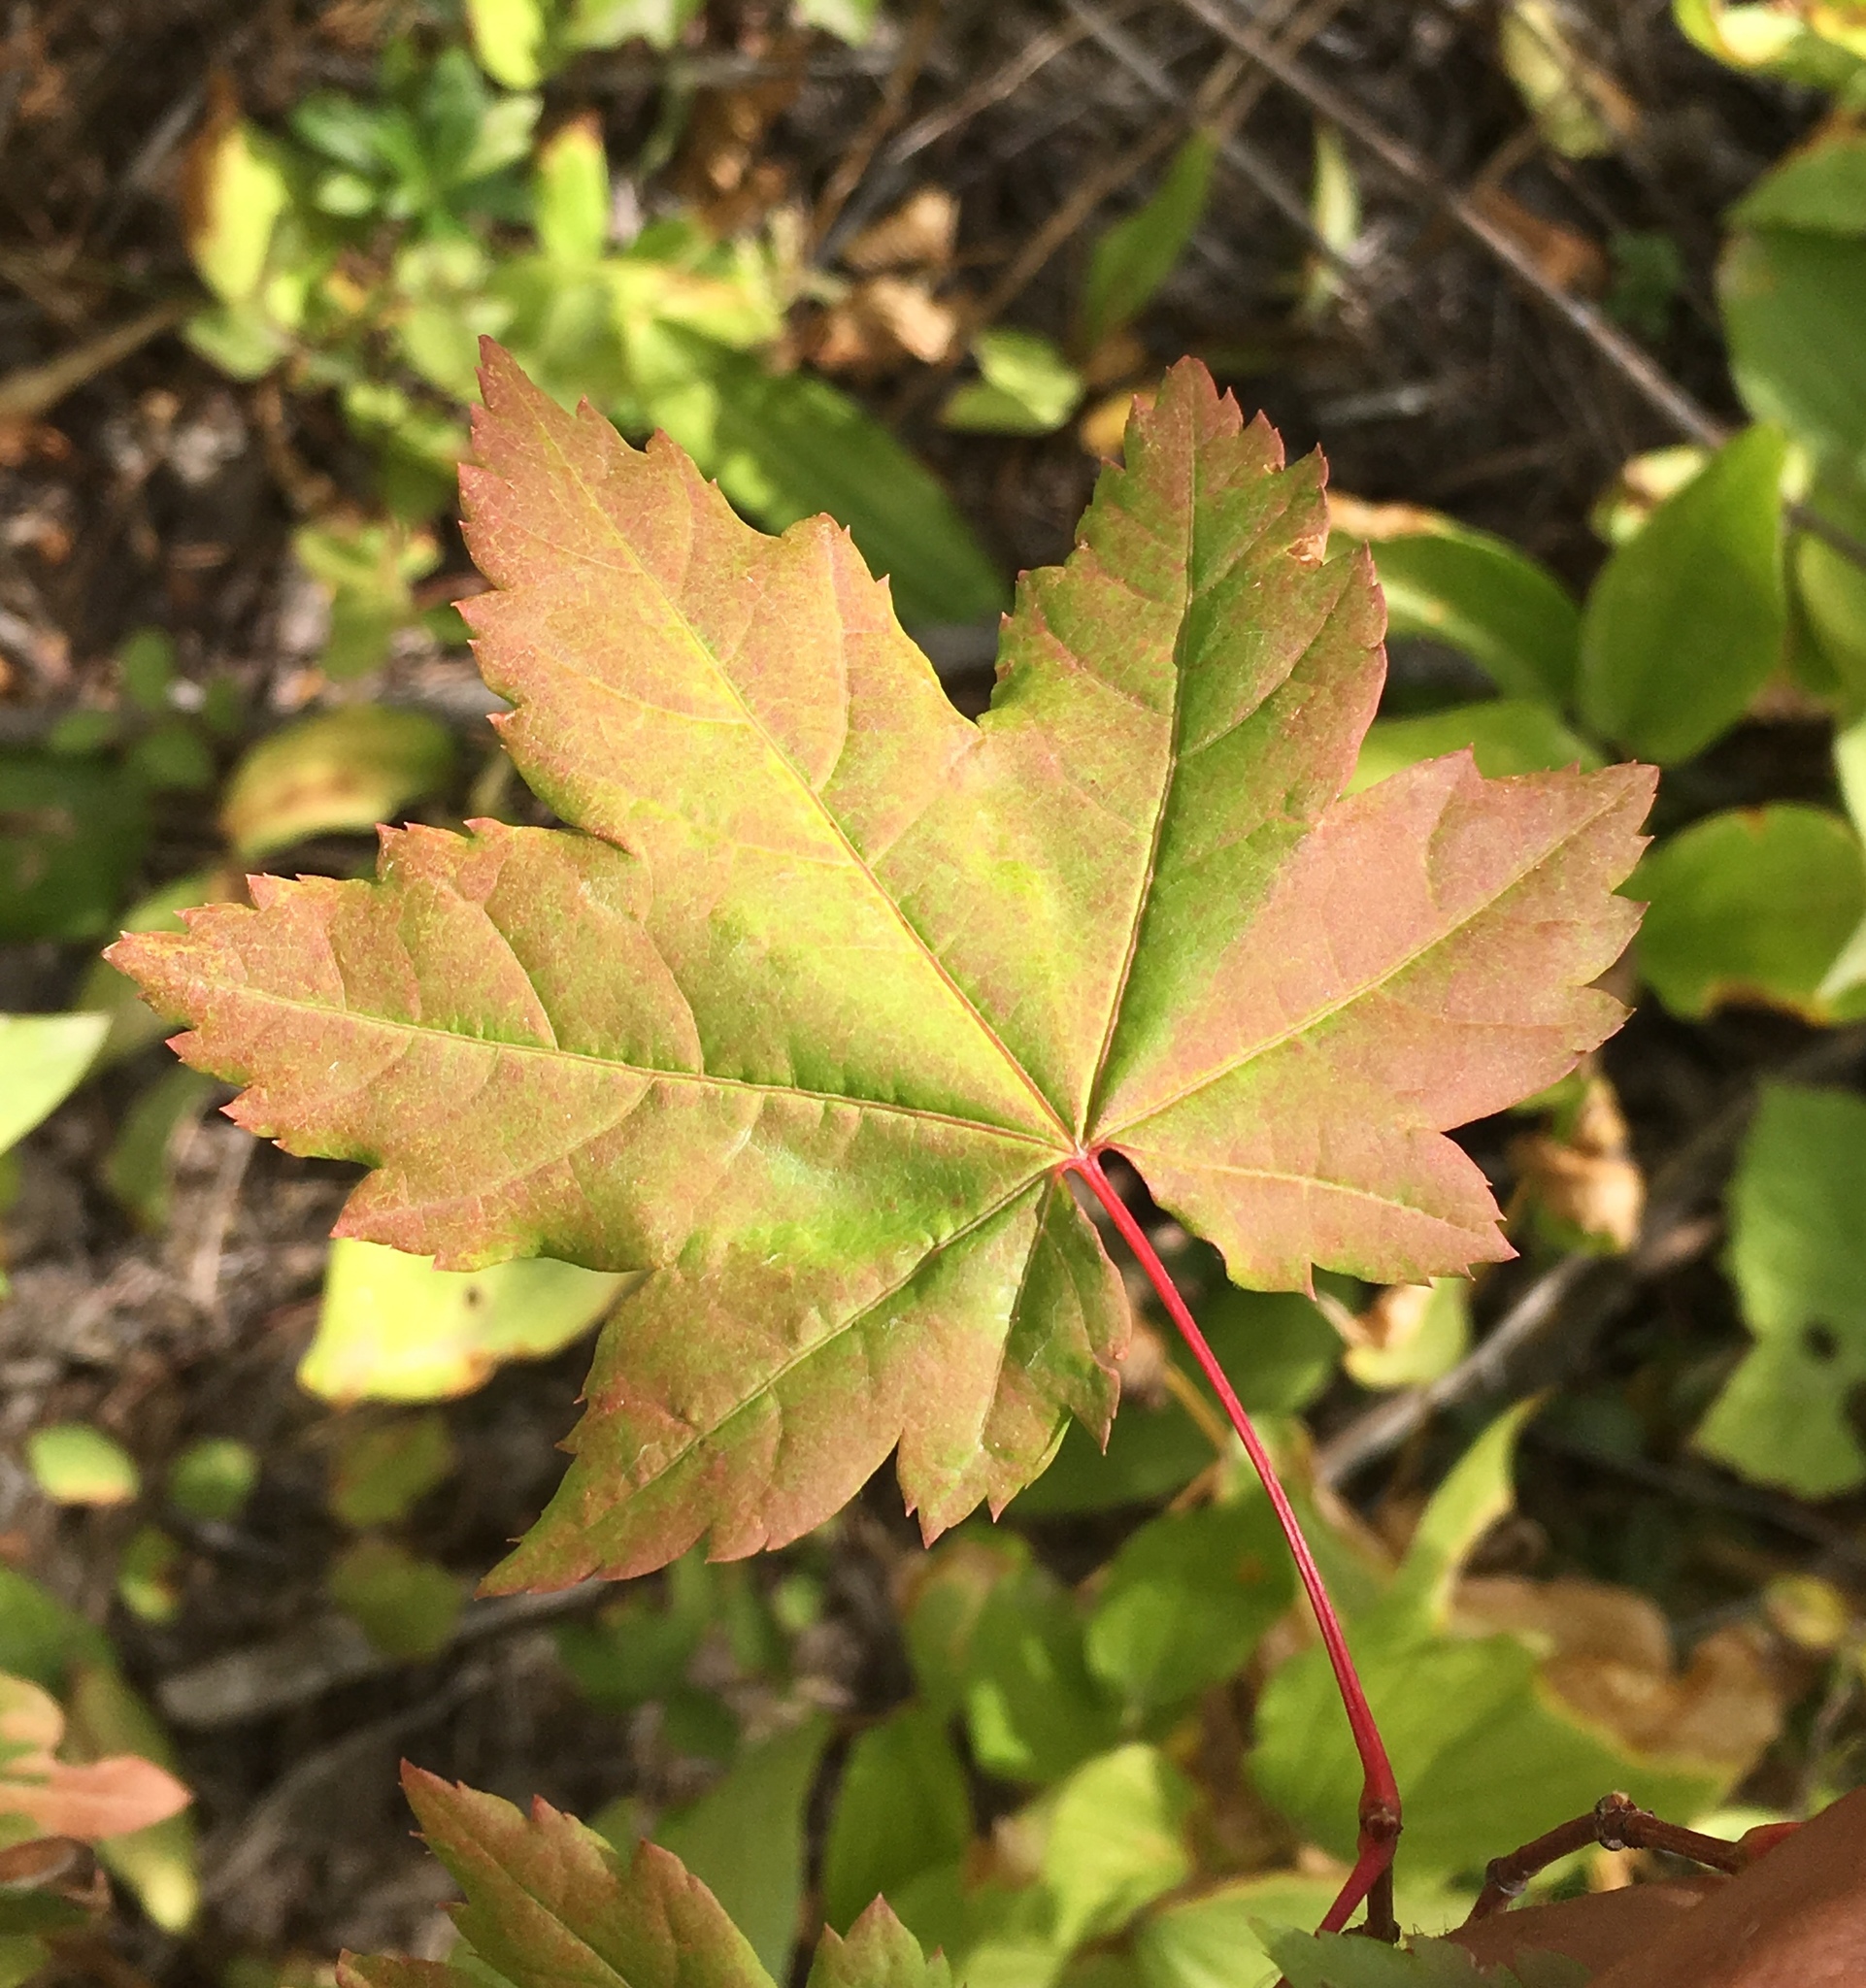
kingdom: Plantae
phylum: Tracheophyta
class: Magnoliopsida
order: Sapindales
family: Sapindaceae
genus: Acer
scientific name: Acer circinatum
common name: Vine maple
